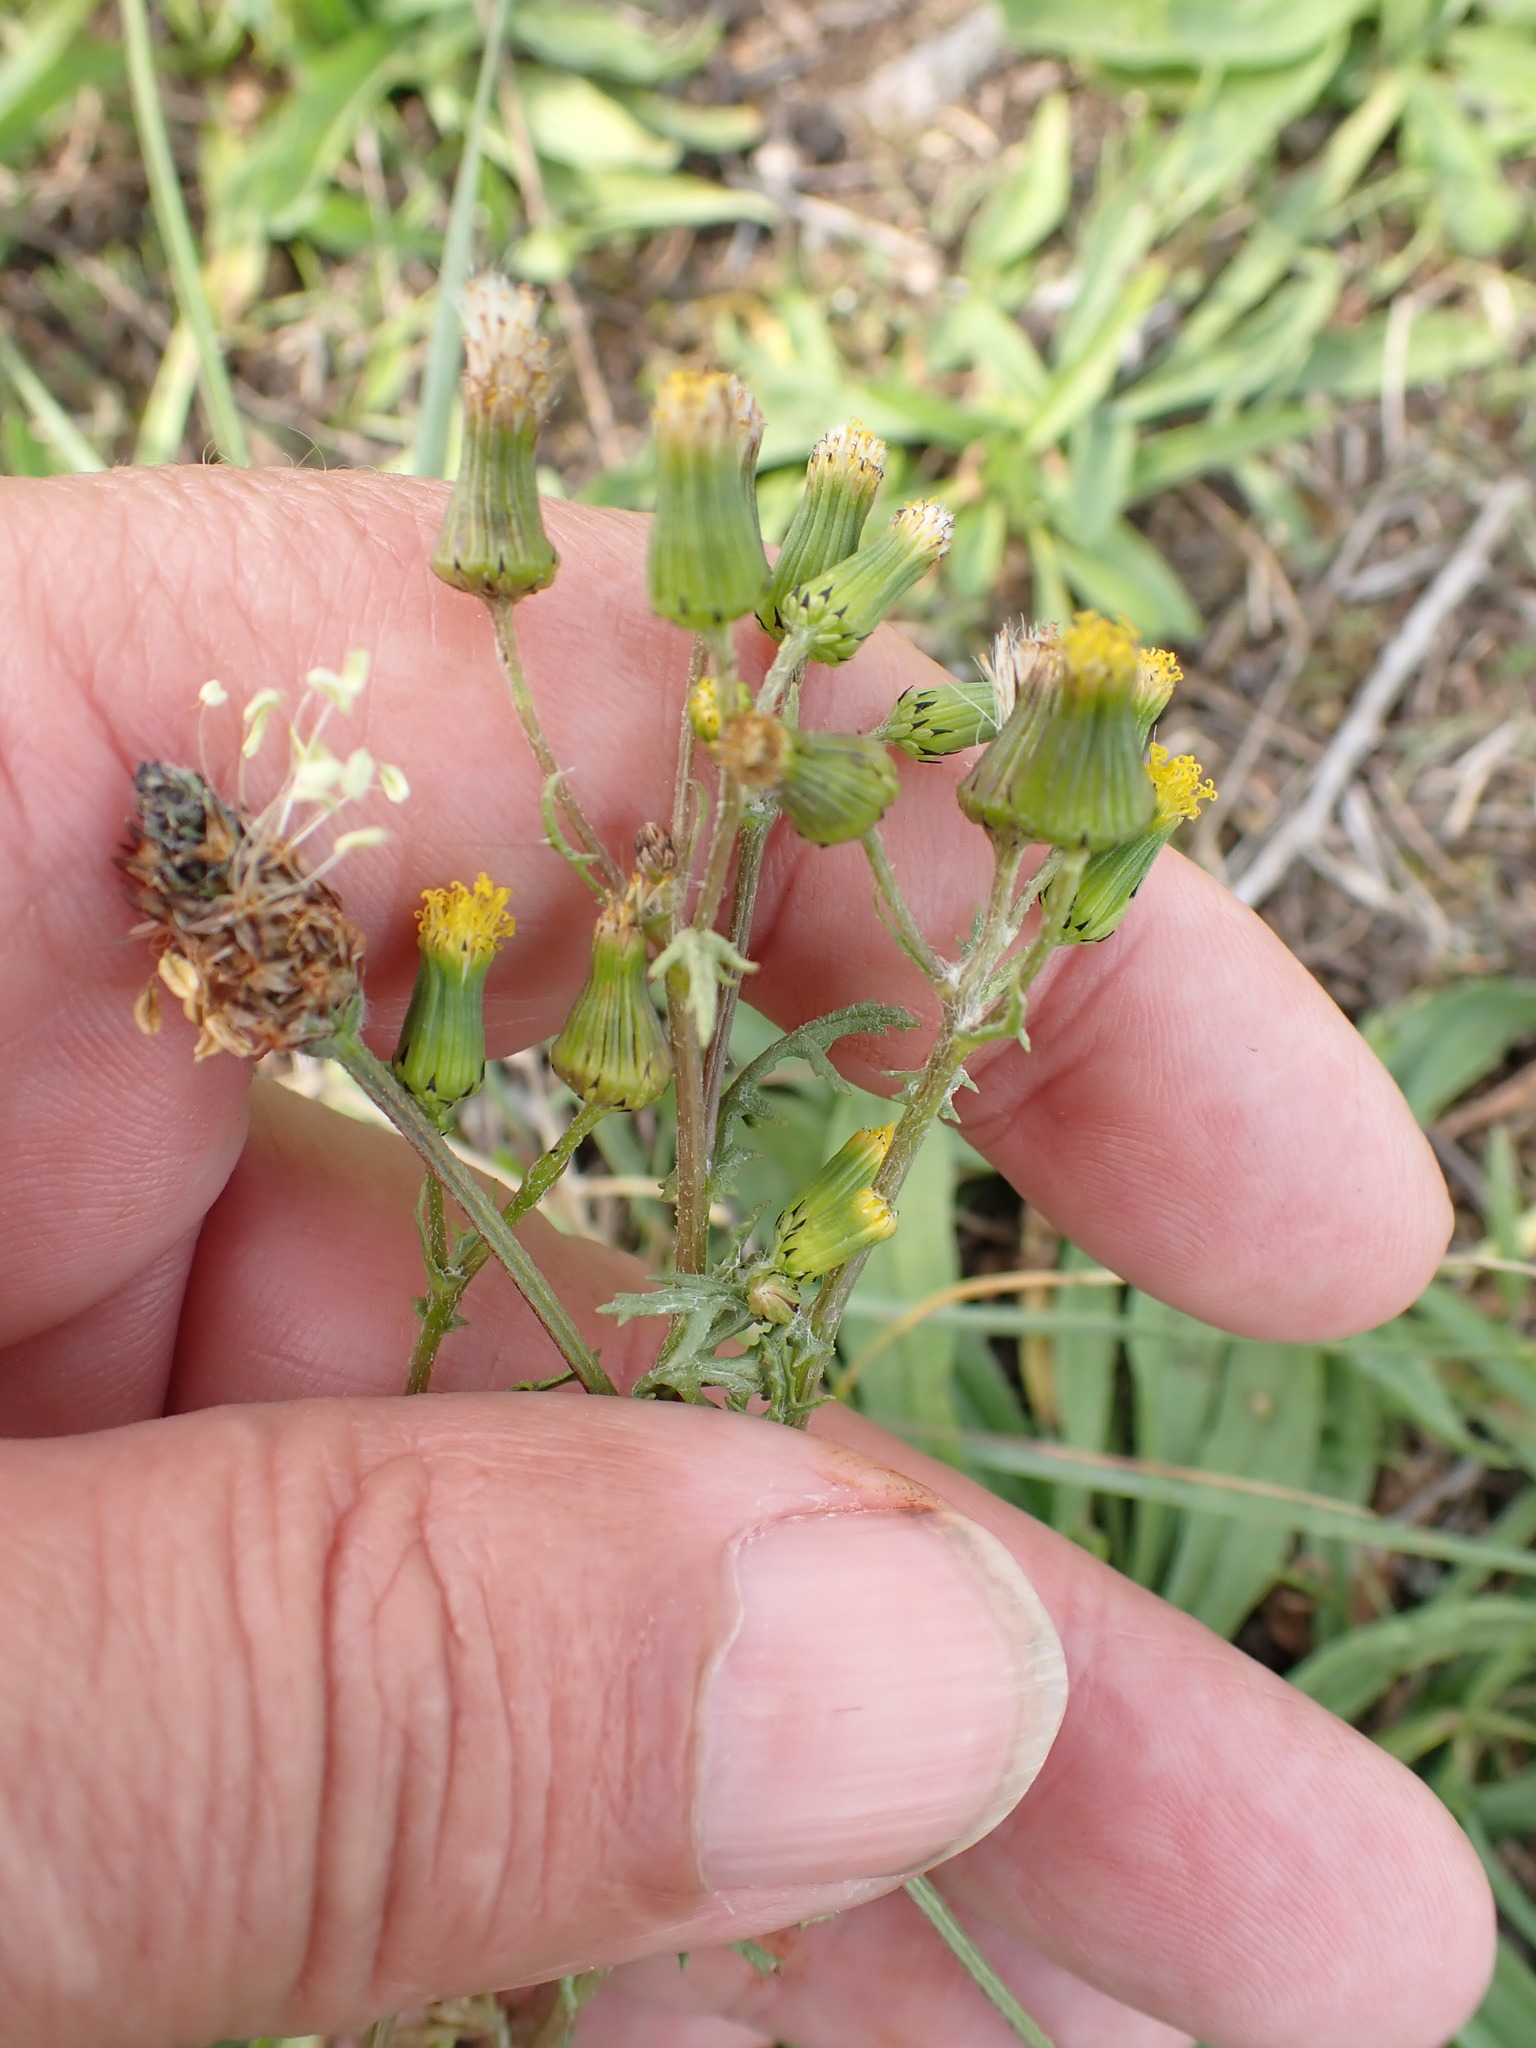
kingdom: Plantae
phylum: Tracheophyta
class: Magnoliopsida
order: Asterales
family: Asteraceae
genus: Senecio
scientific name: Senecio vulgaris
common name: Old-man-in-the-spring
